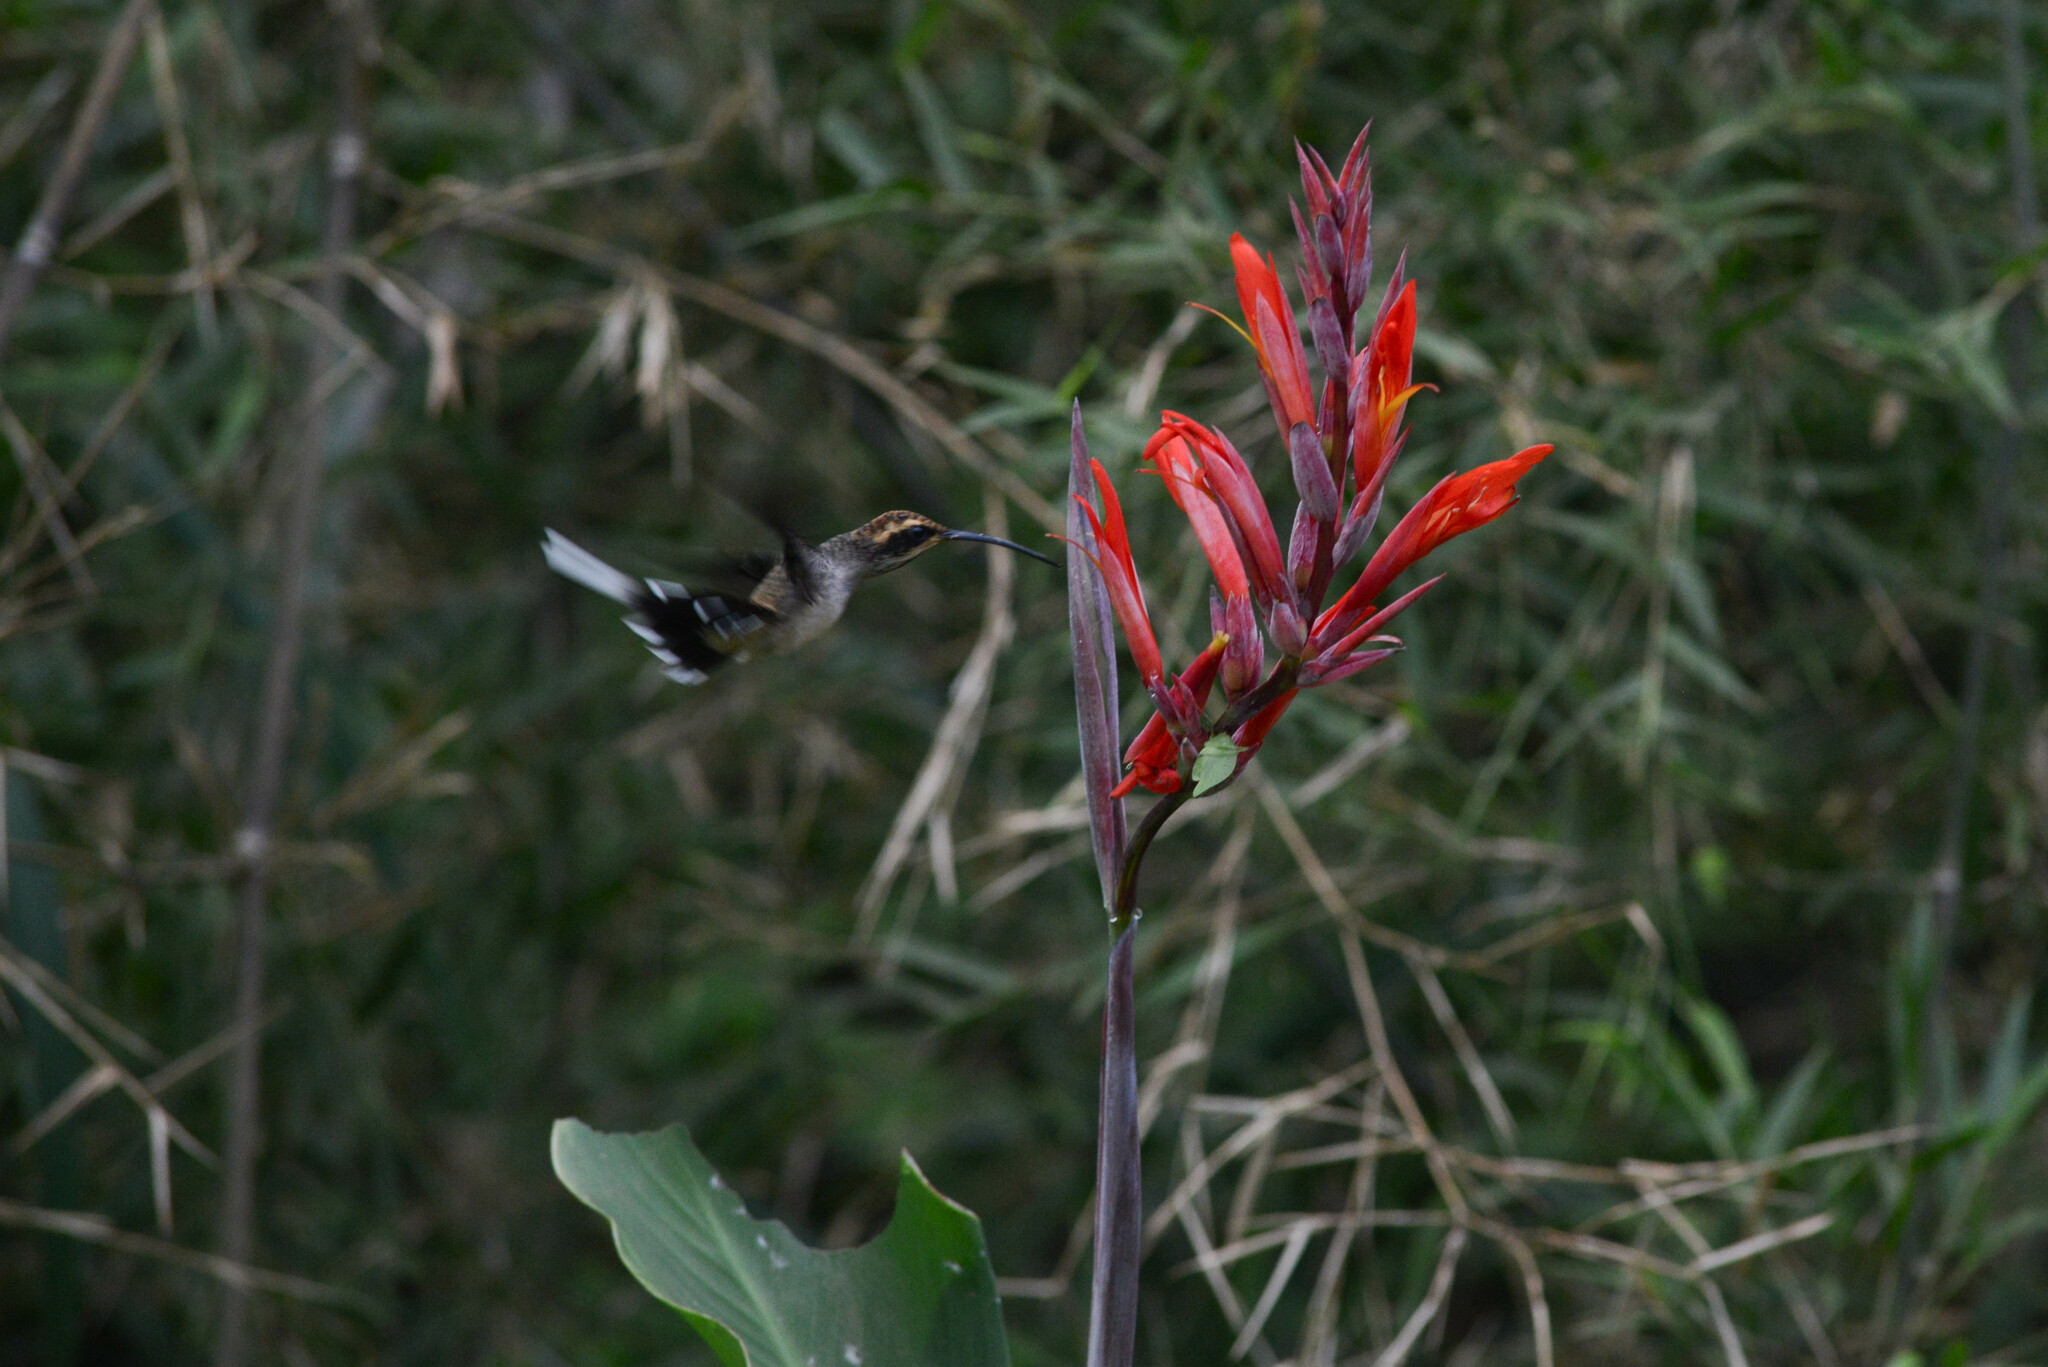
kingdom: Plantae
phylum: Tracheophyta
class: Liliopsida
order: Zingiberales
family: Cannaceae
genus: Canna
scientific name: Canna indica
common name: Indian shot
